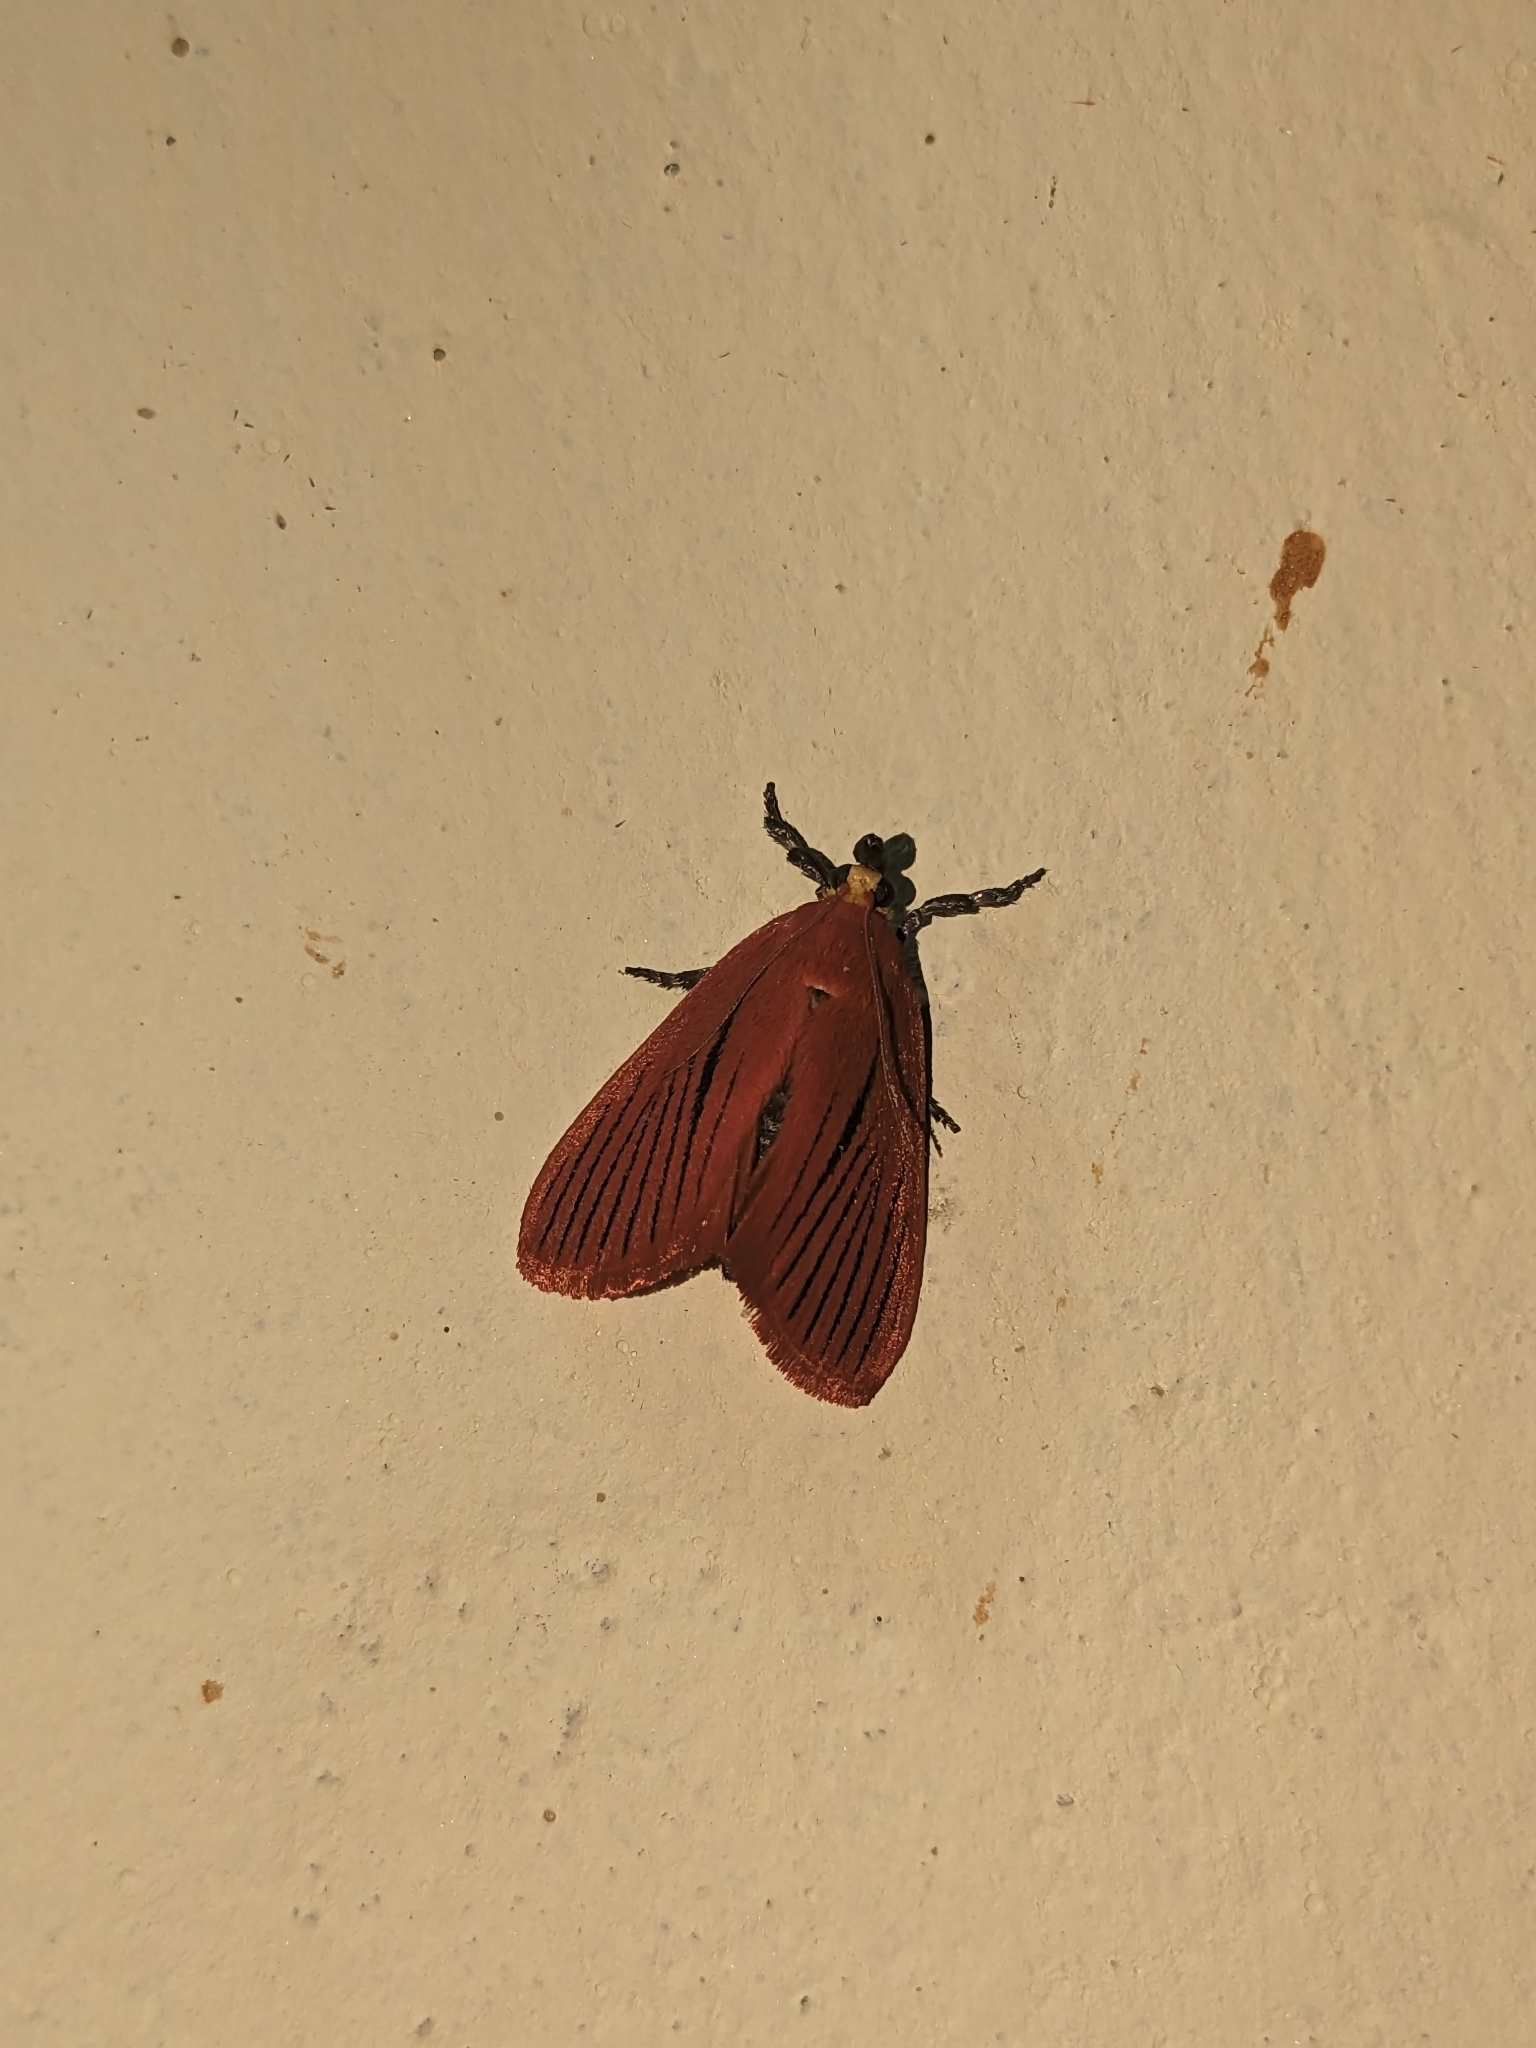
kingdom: Animalia
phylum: Arthropoda
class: Insecta
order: Lepidoptera
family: Pyralidae
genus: Arctioblepsis
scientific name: Arctioblepsis rubida
